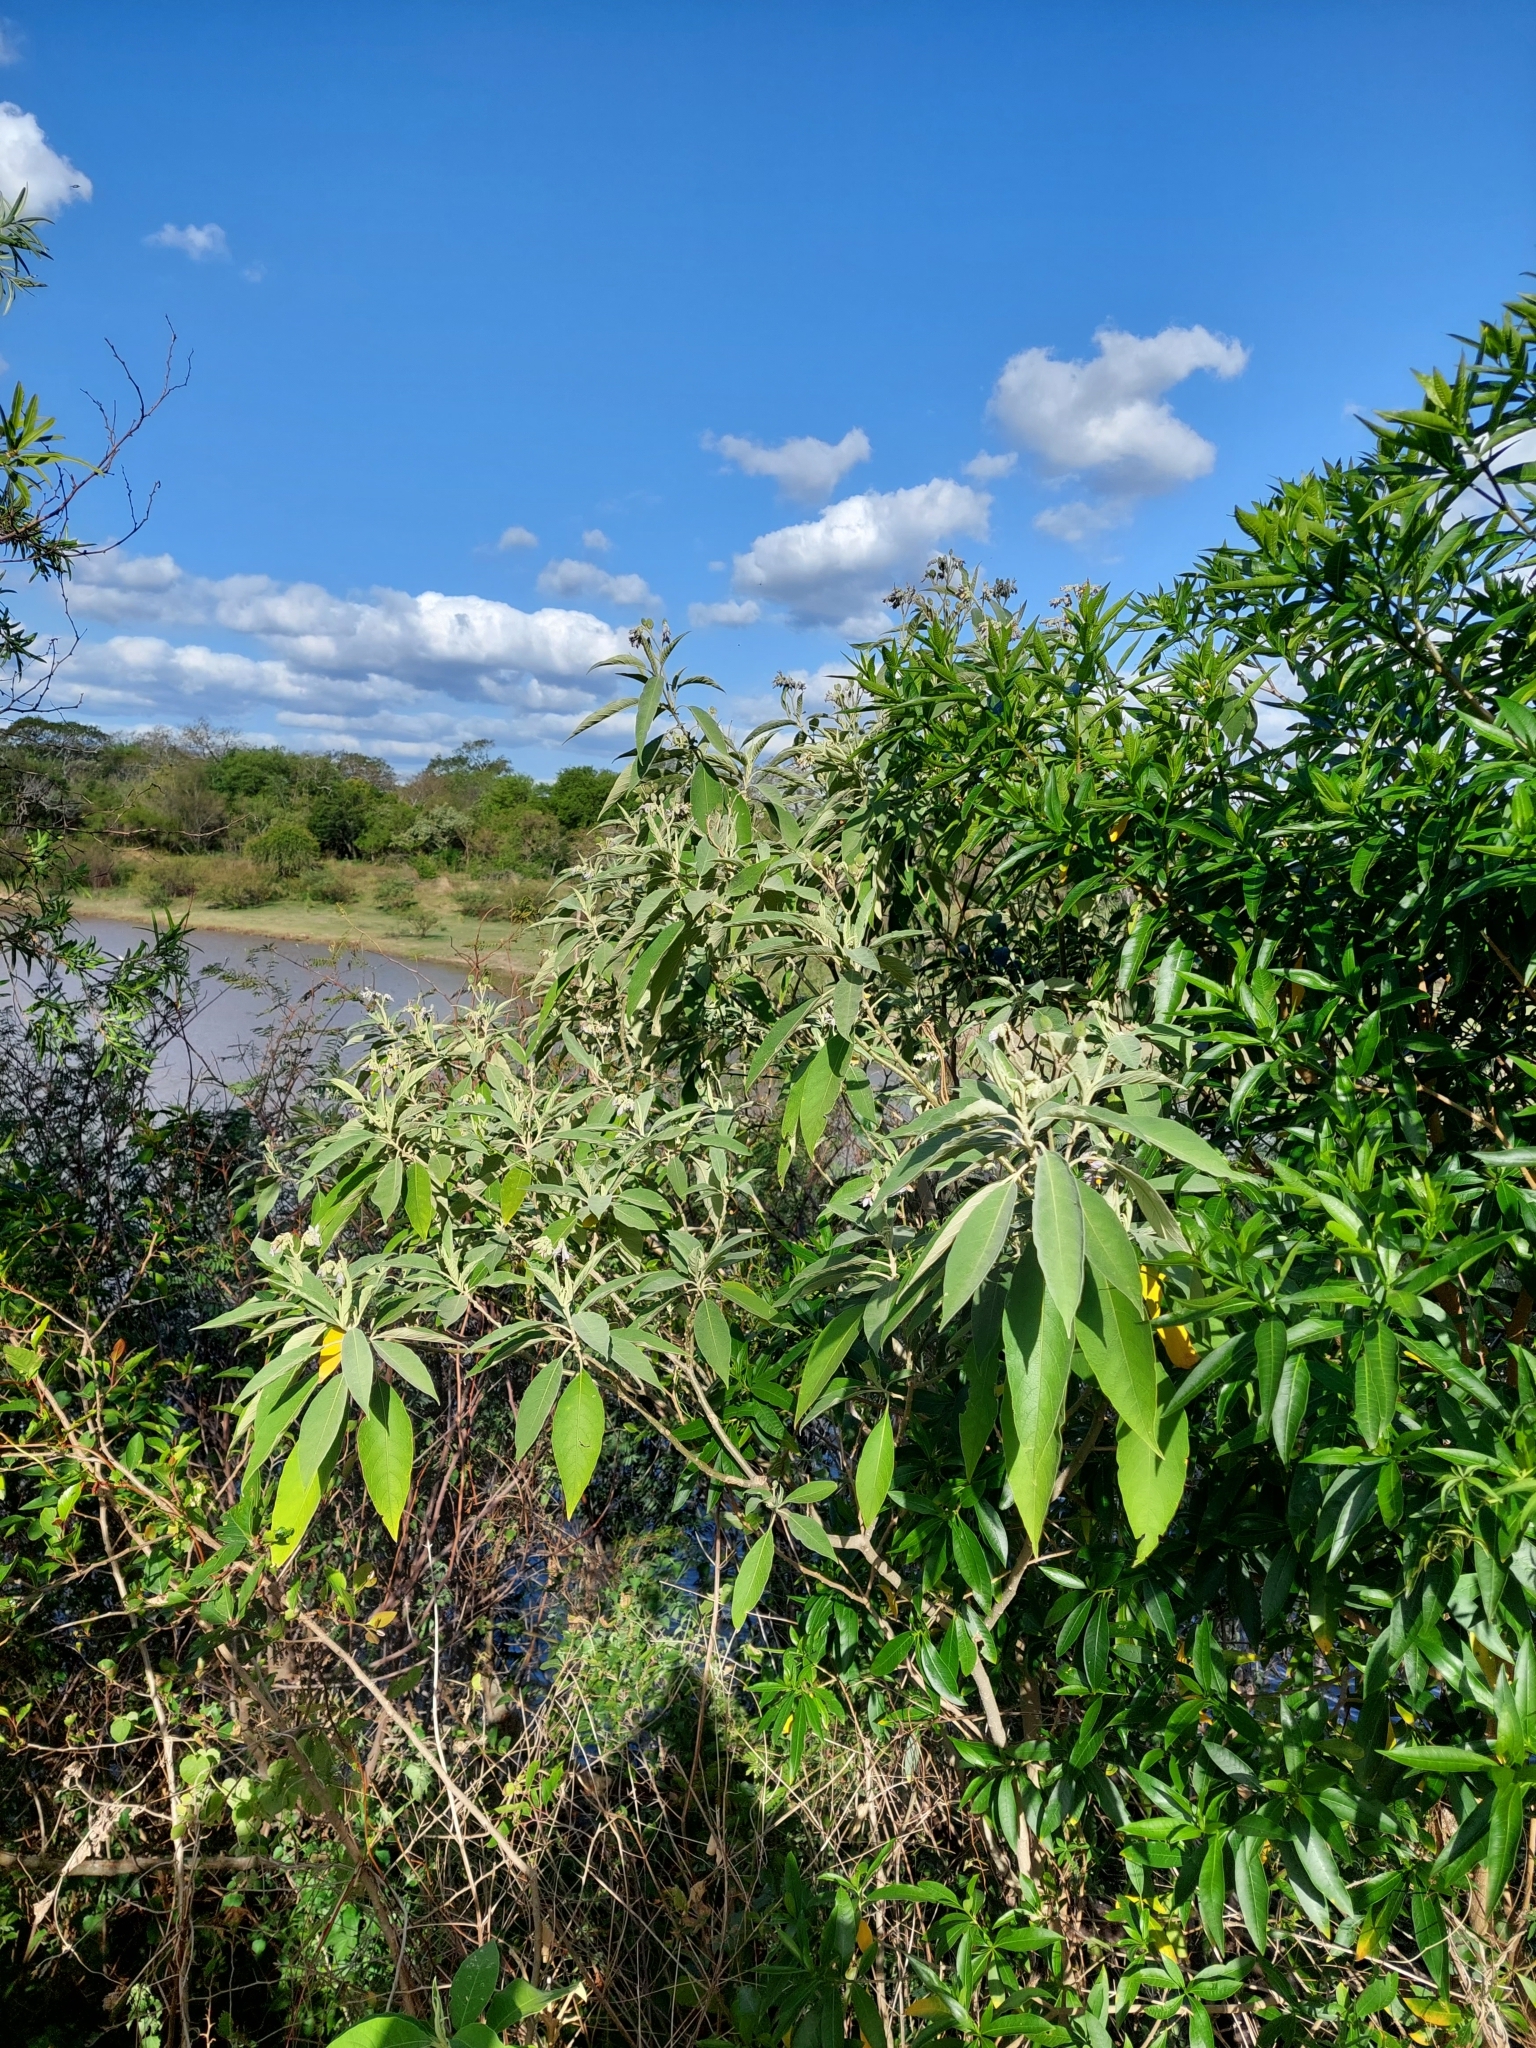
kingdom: Plantae
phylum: Tracheophyta
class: Magnoliopsida
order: Solanales
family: Solanaceae
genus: Solanum
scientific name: Solanum granulosoleprosum
